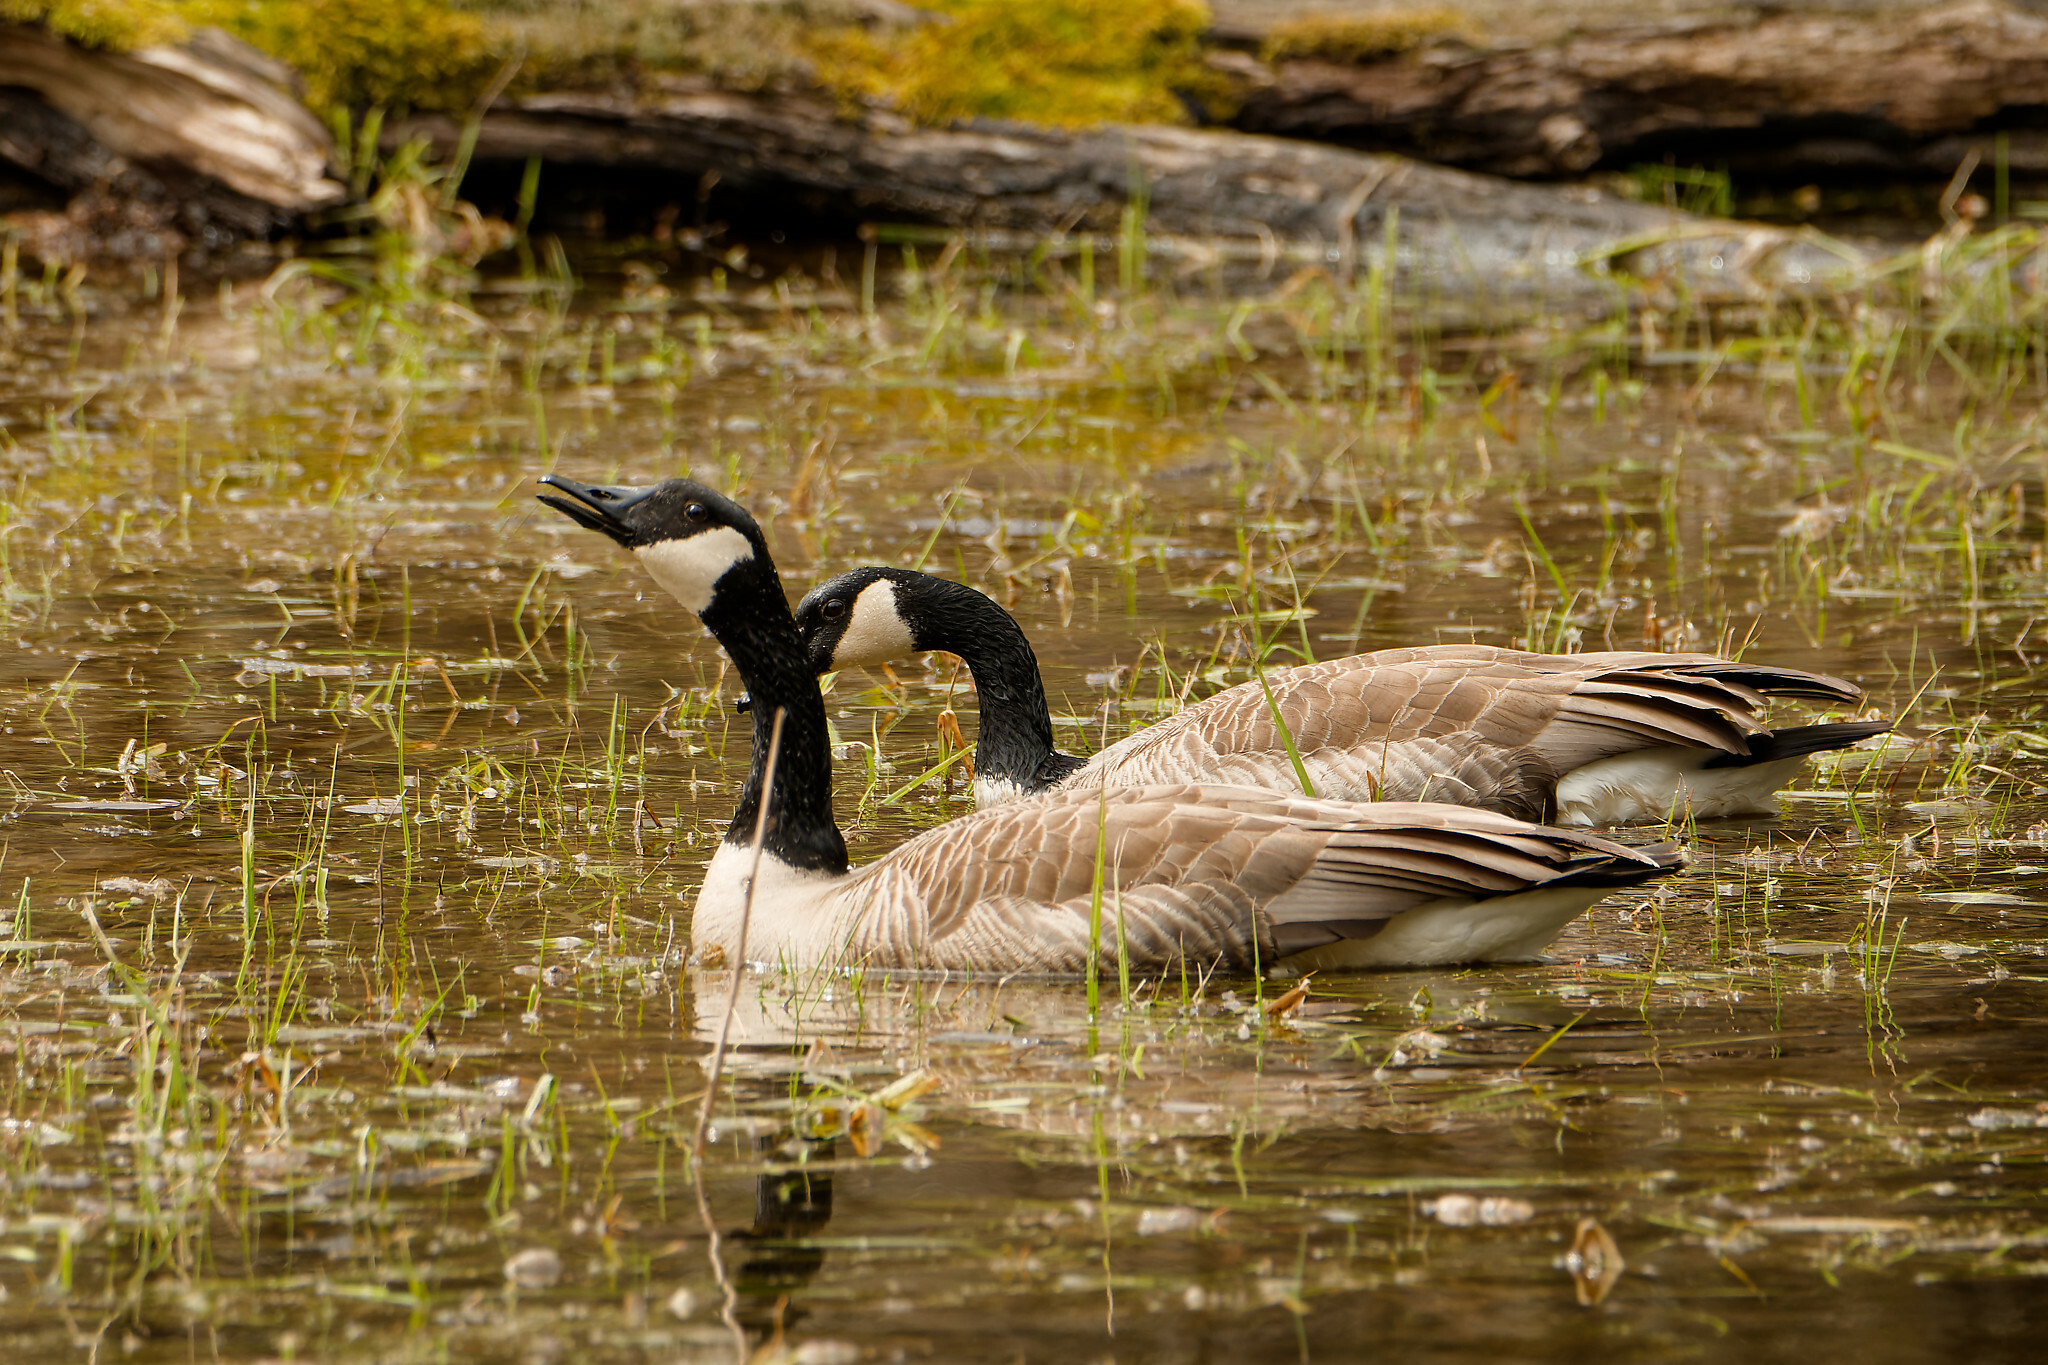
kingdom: Animalia
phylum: Chordata
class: Aves
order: Anseriformes
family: Anatidae
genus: Branta
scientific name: Branta canadensis
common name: Canada goose
